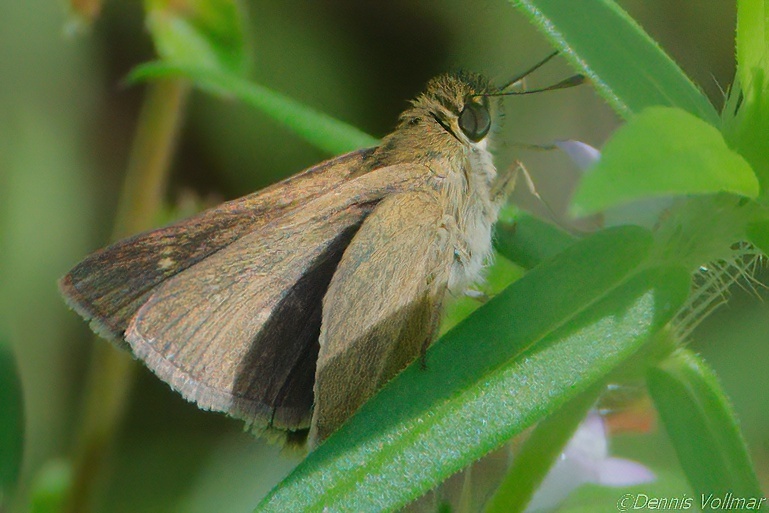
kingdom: Animalia
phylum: Arthropoda
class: Insecta
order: Lepidoptera
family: Hesperiidae
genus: Nastra
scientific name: Nastra
